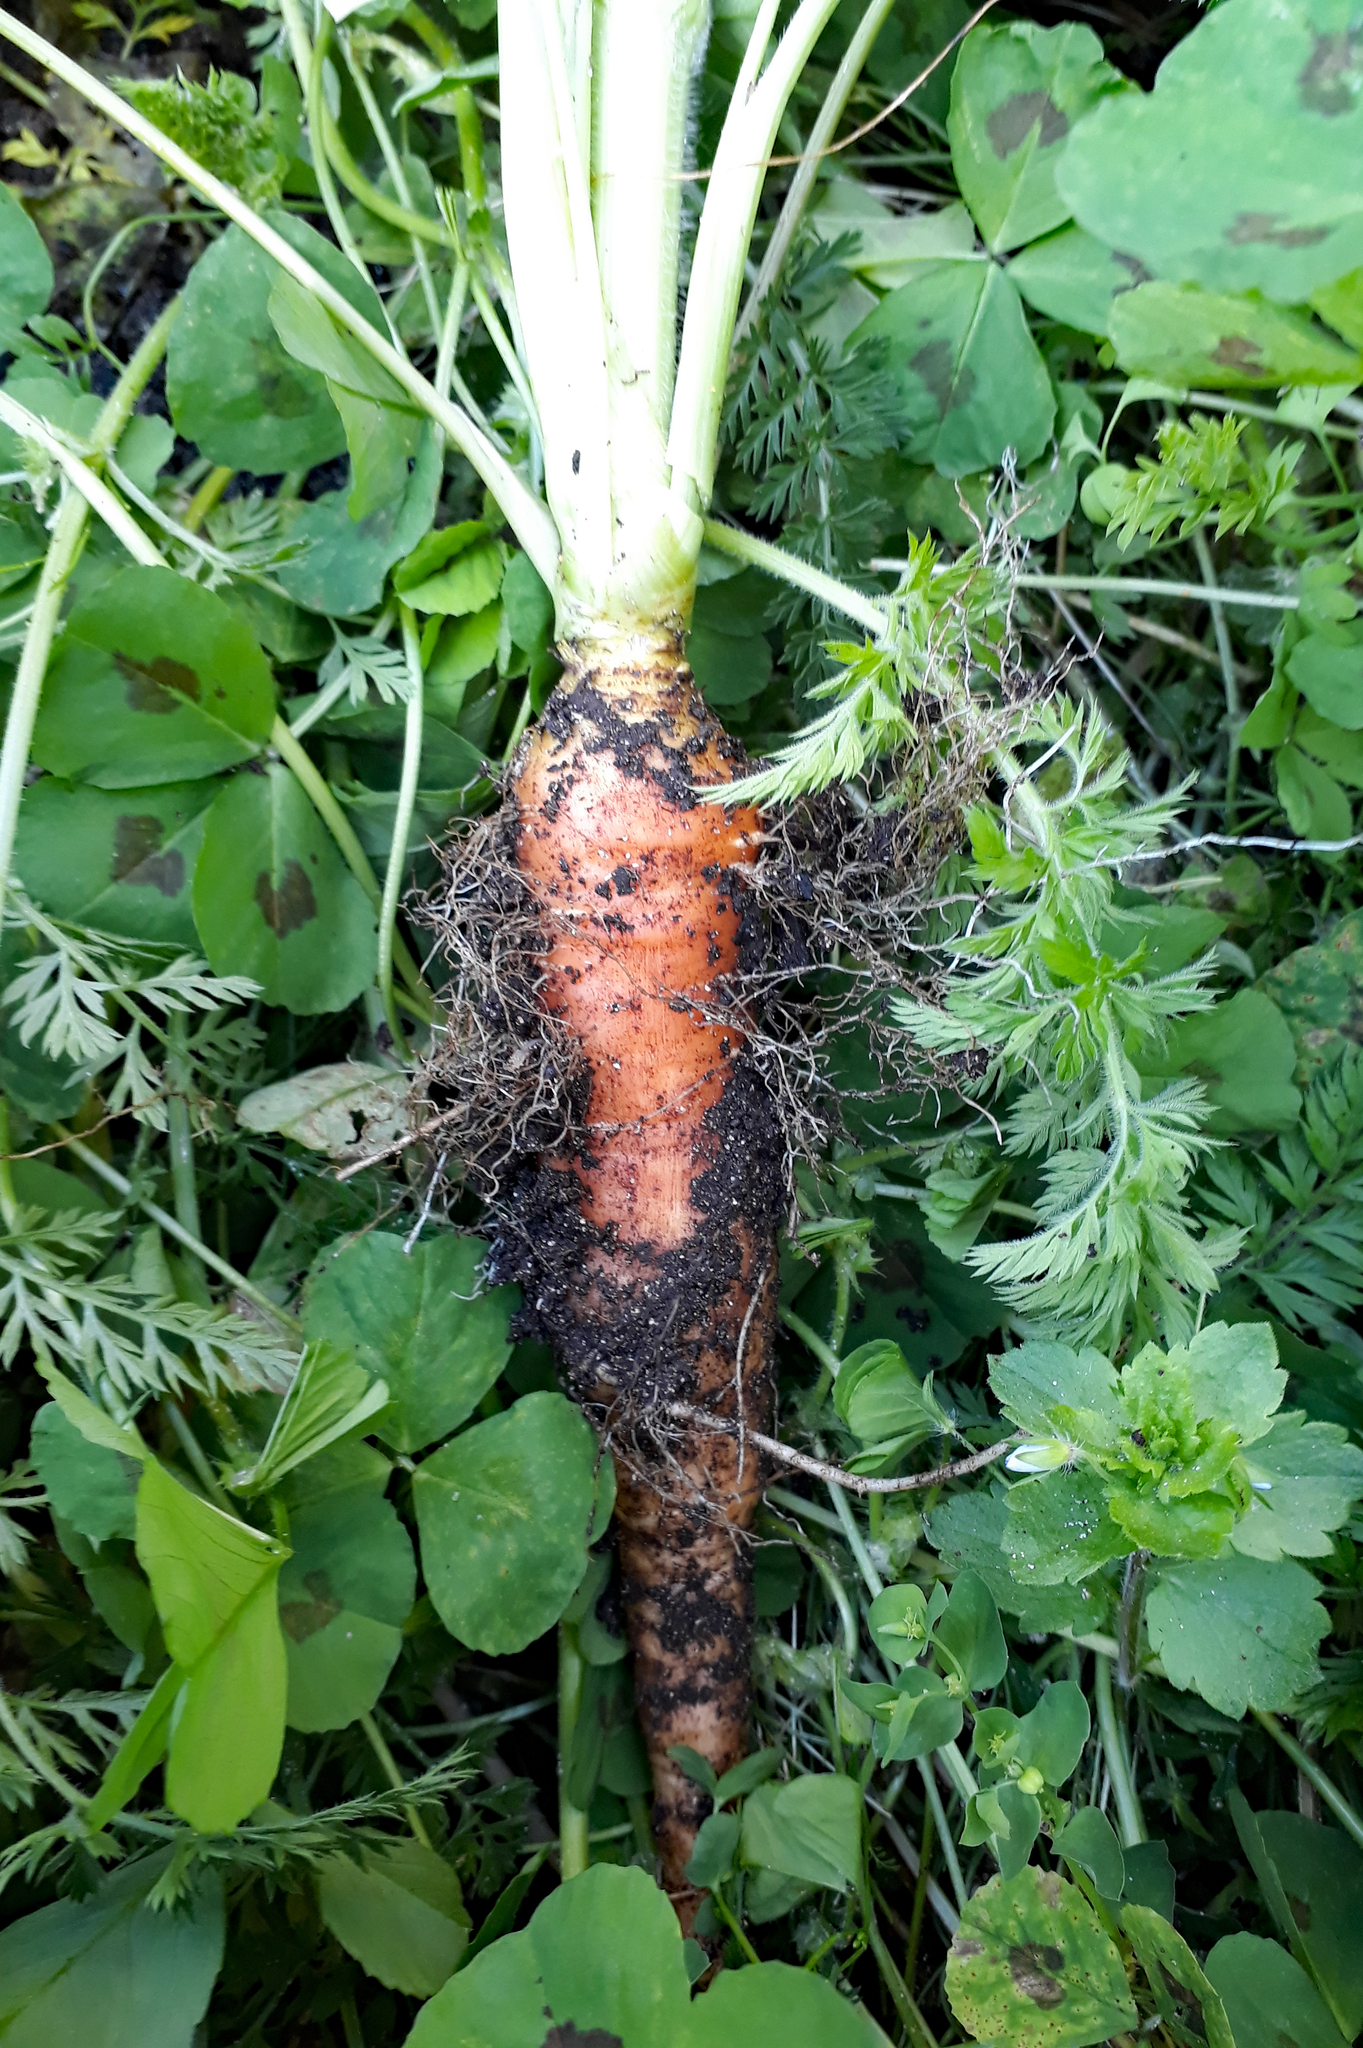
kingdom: Plantae
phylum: Tracheophyta
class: Magnoliopsida
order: Apiales
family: Apiaceae
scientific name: Apiaceae
